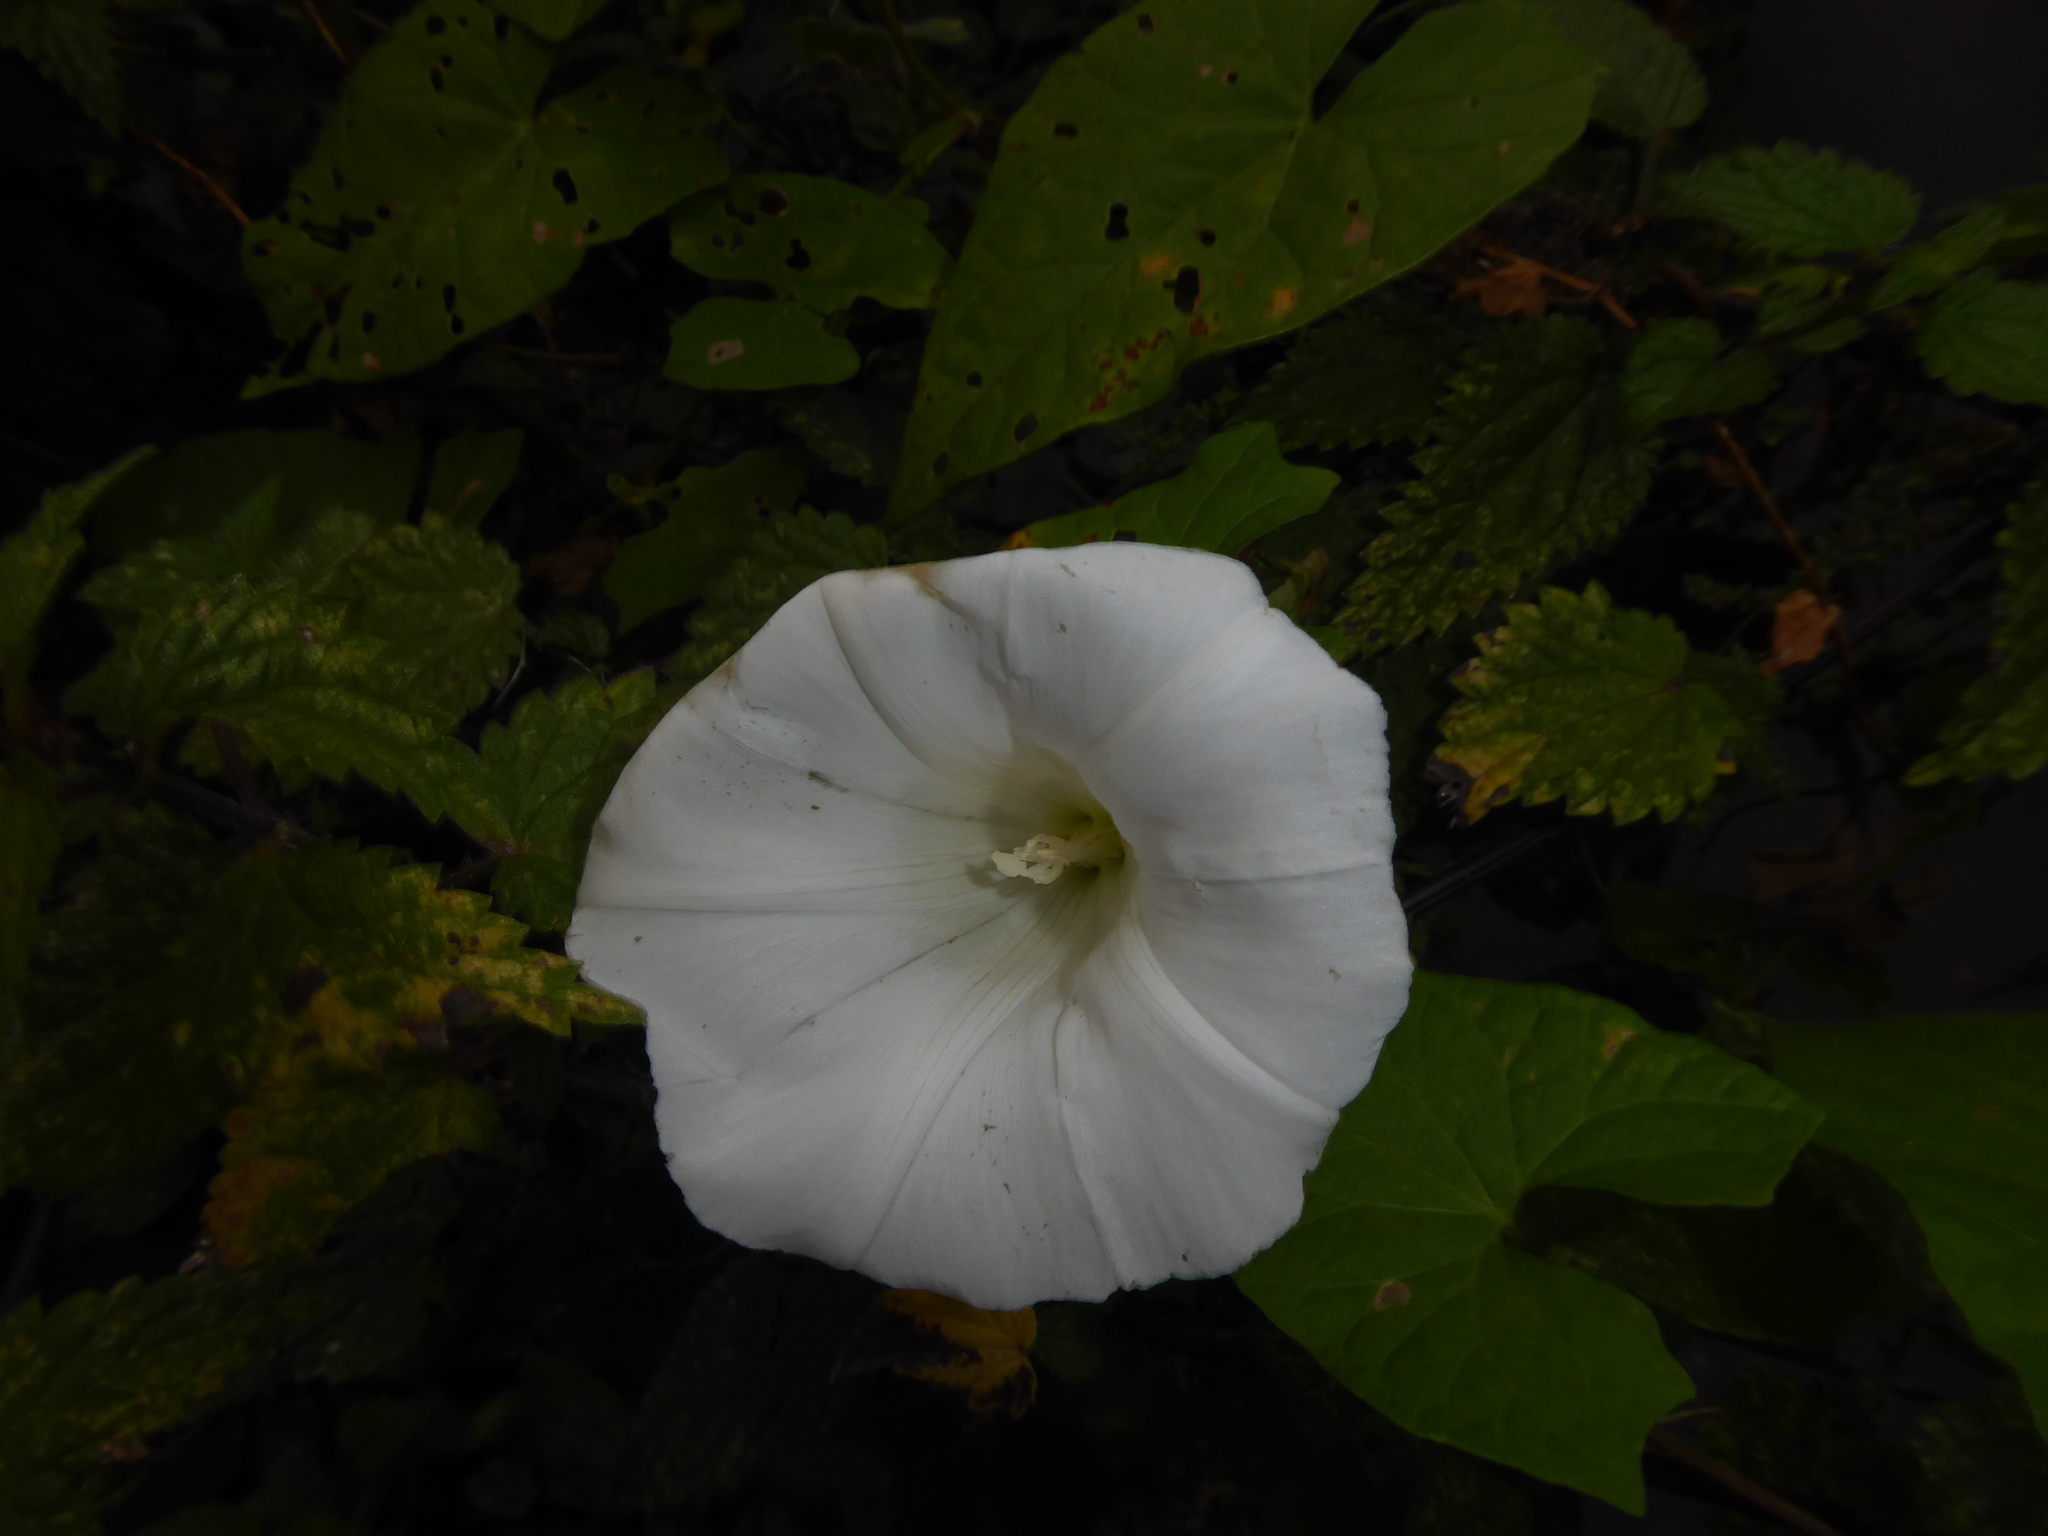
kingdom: Plantae
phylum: Tracheophyta
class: Magnoliopsida
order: Solanales
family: Convolvulaceae
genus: Calystegia
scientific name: Calystegia sepium
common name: Hedge bindweed
